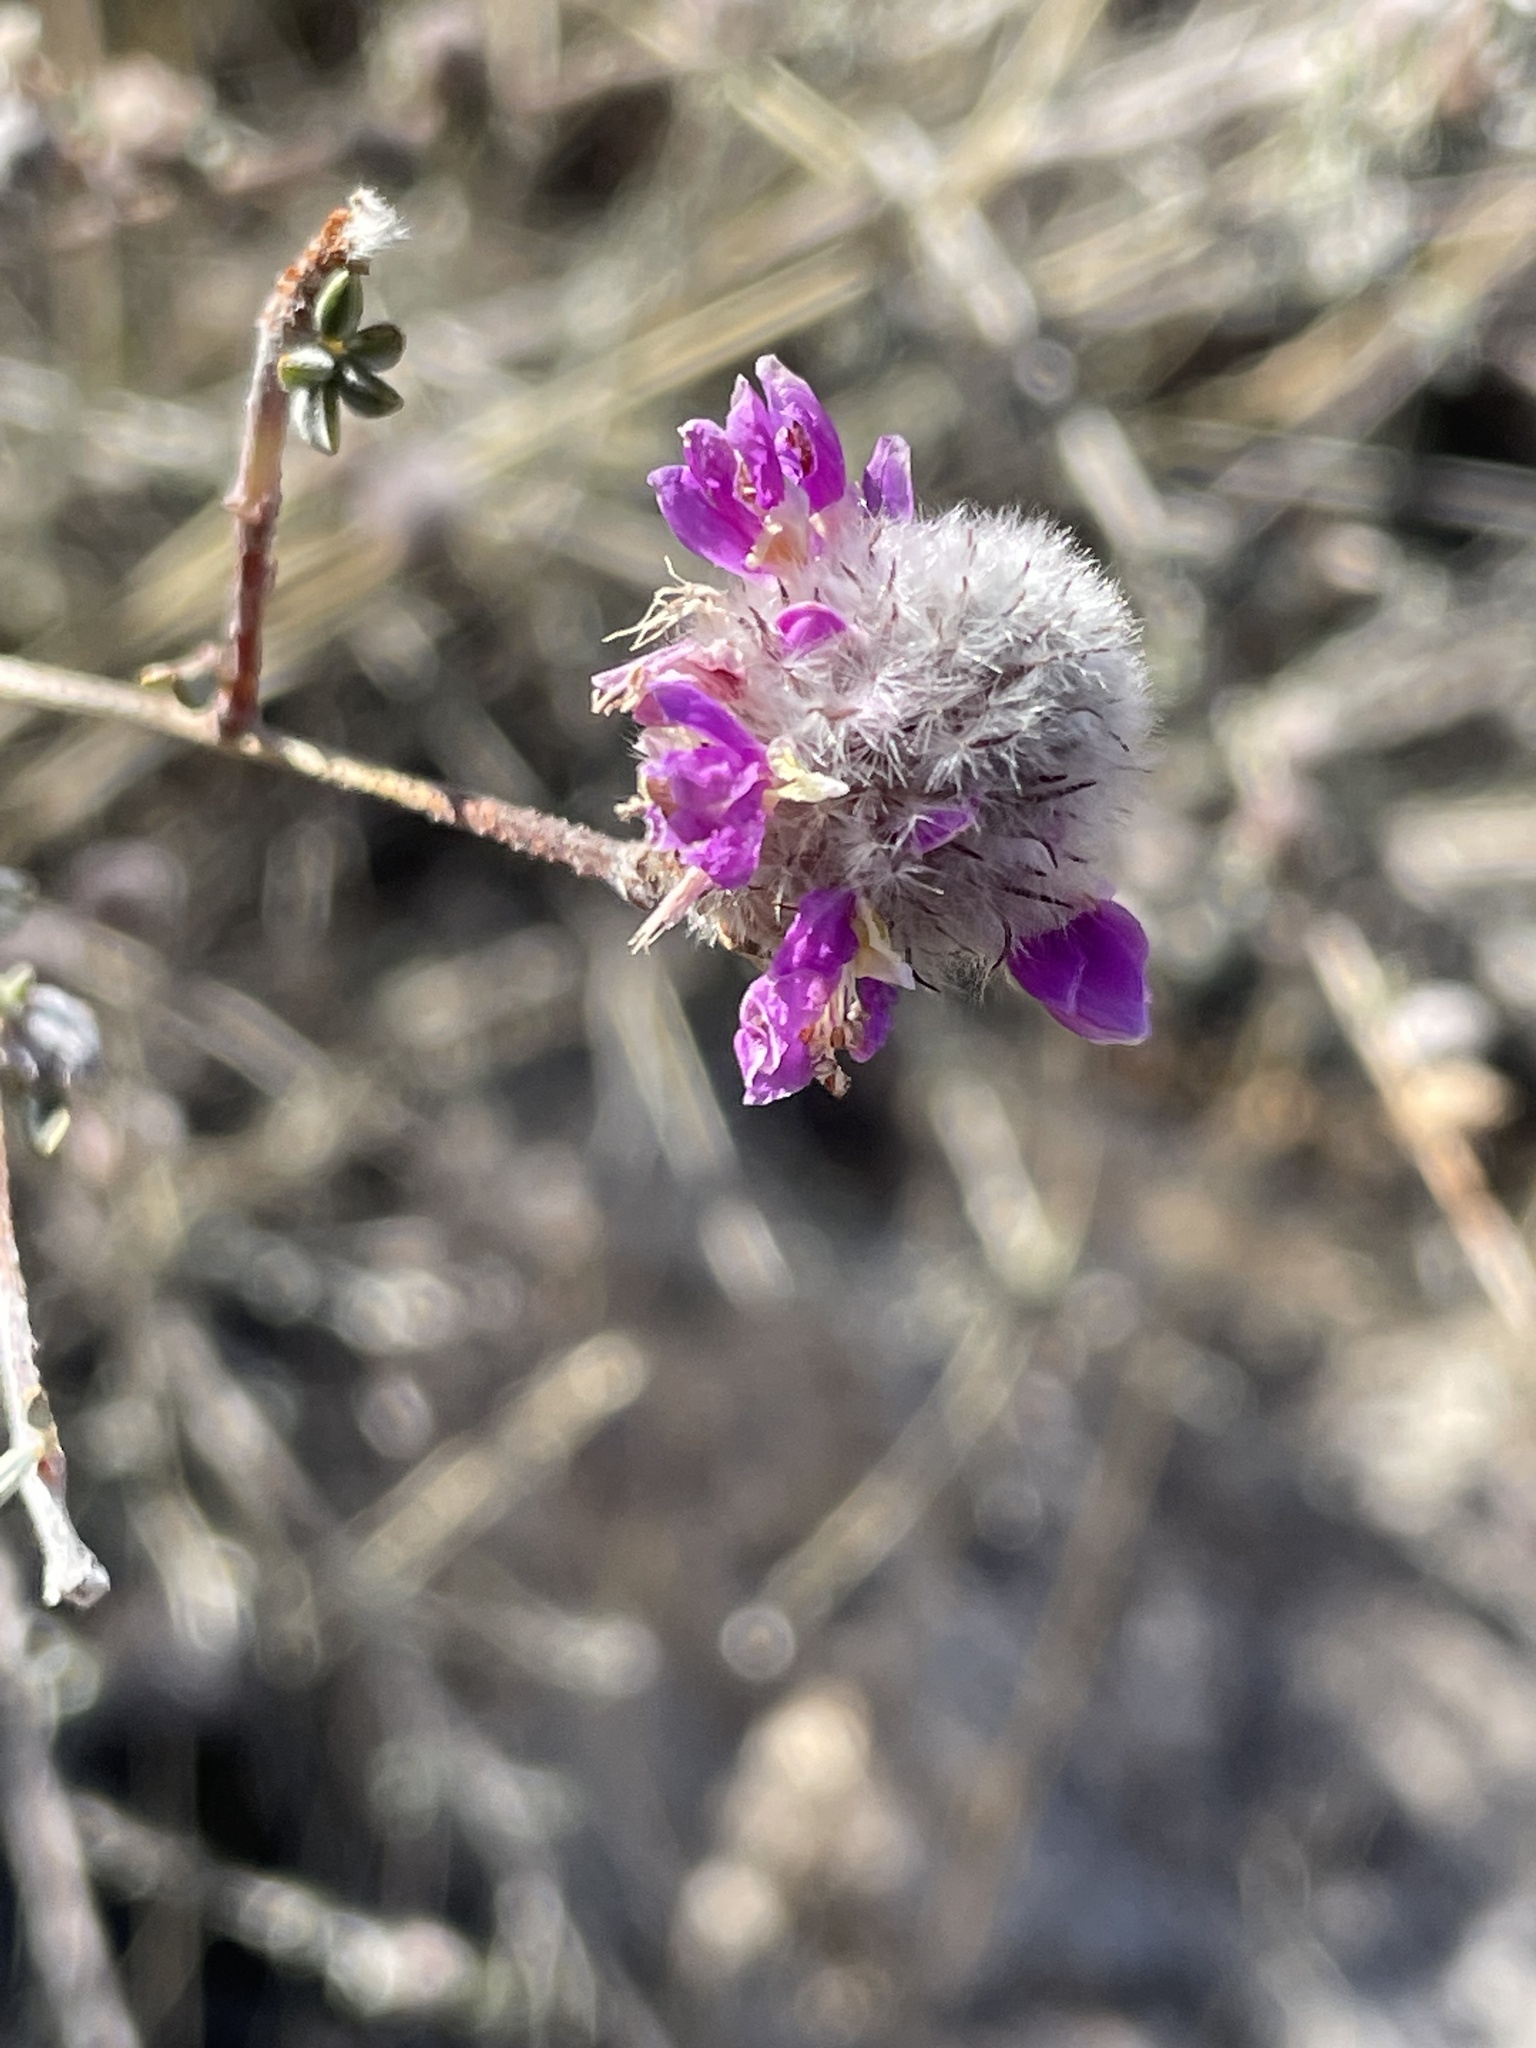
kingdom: Plantae
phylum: Tracheophyta
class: Magnoliopsida
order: Fabales
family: Fabaceae
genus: Dalea
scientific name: Dalea pulchra
